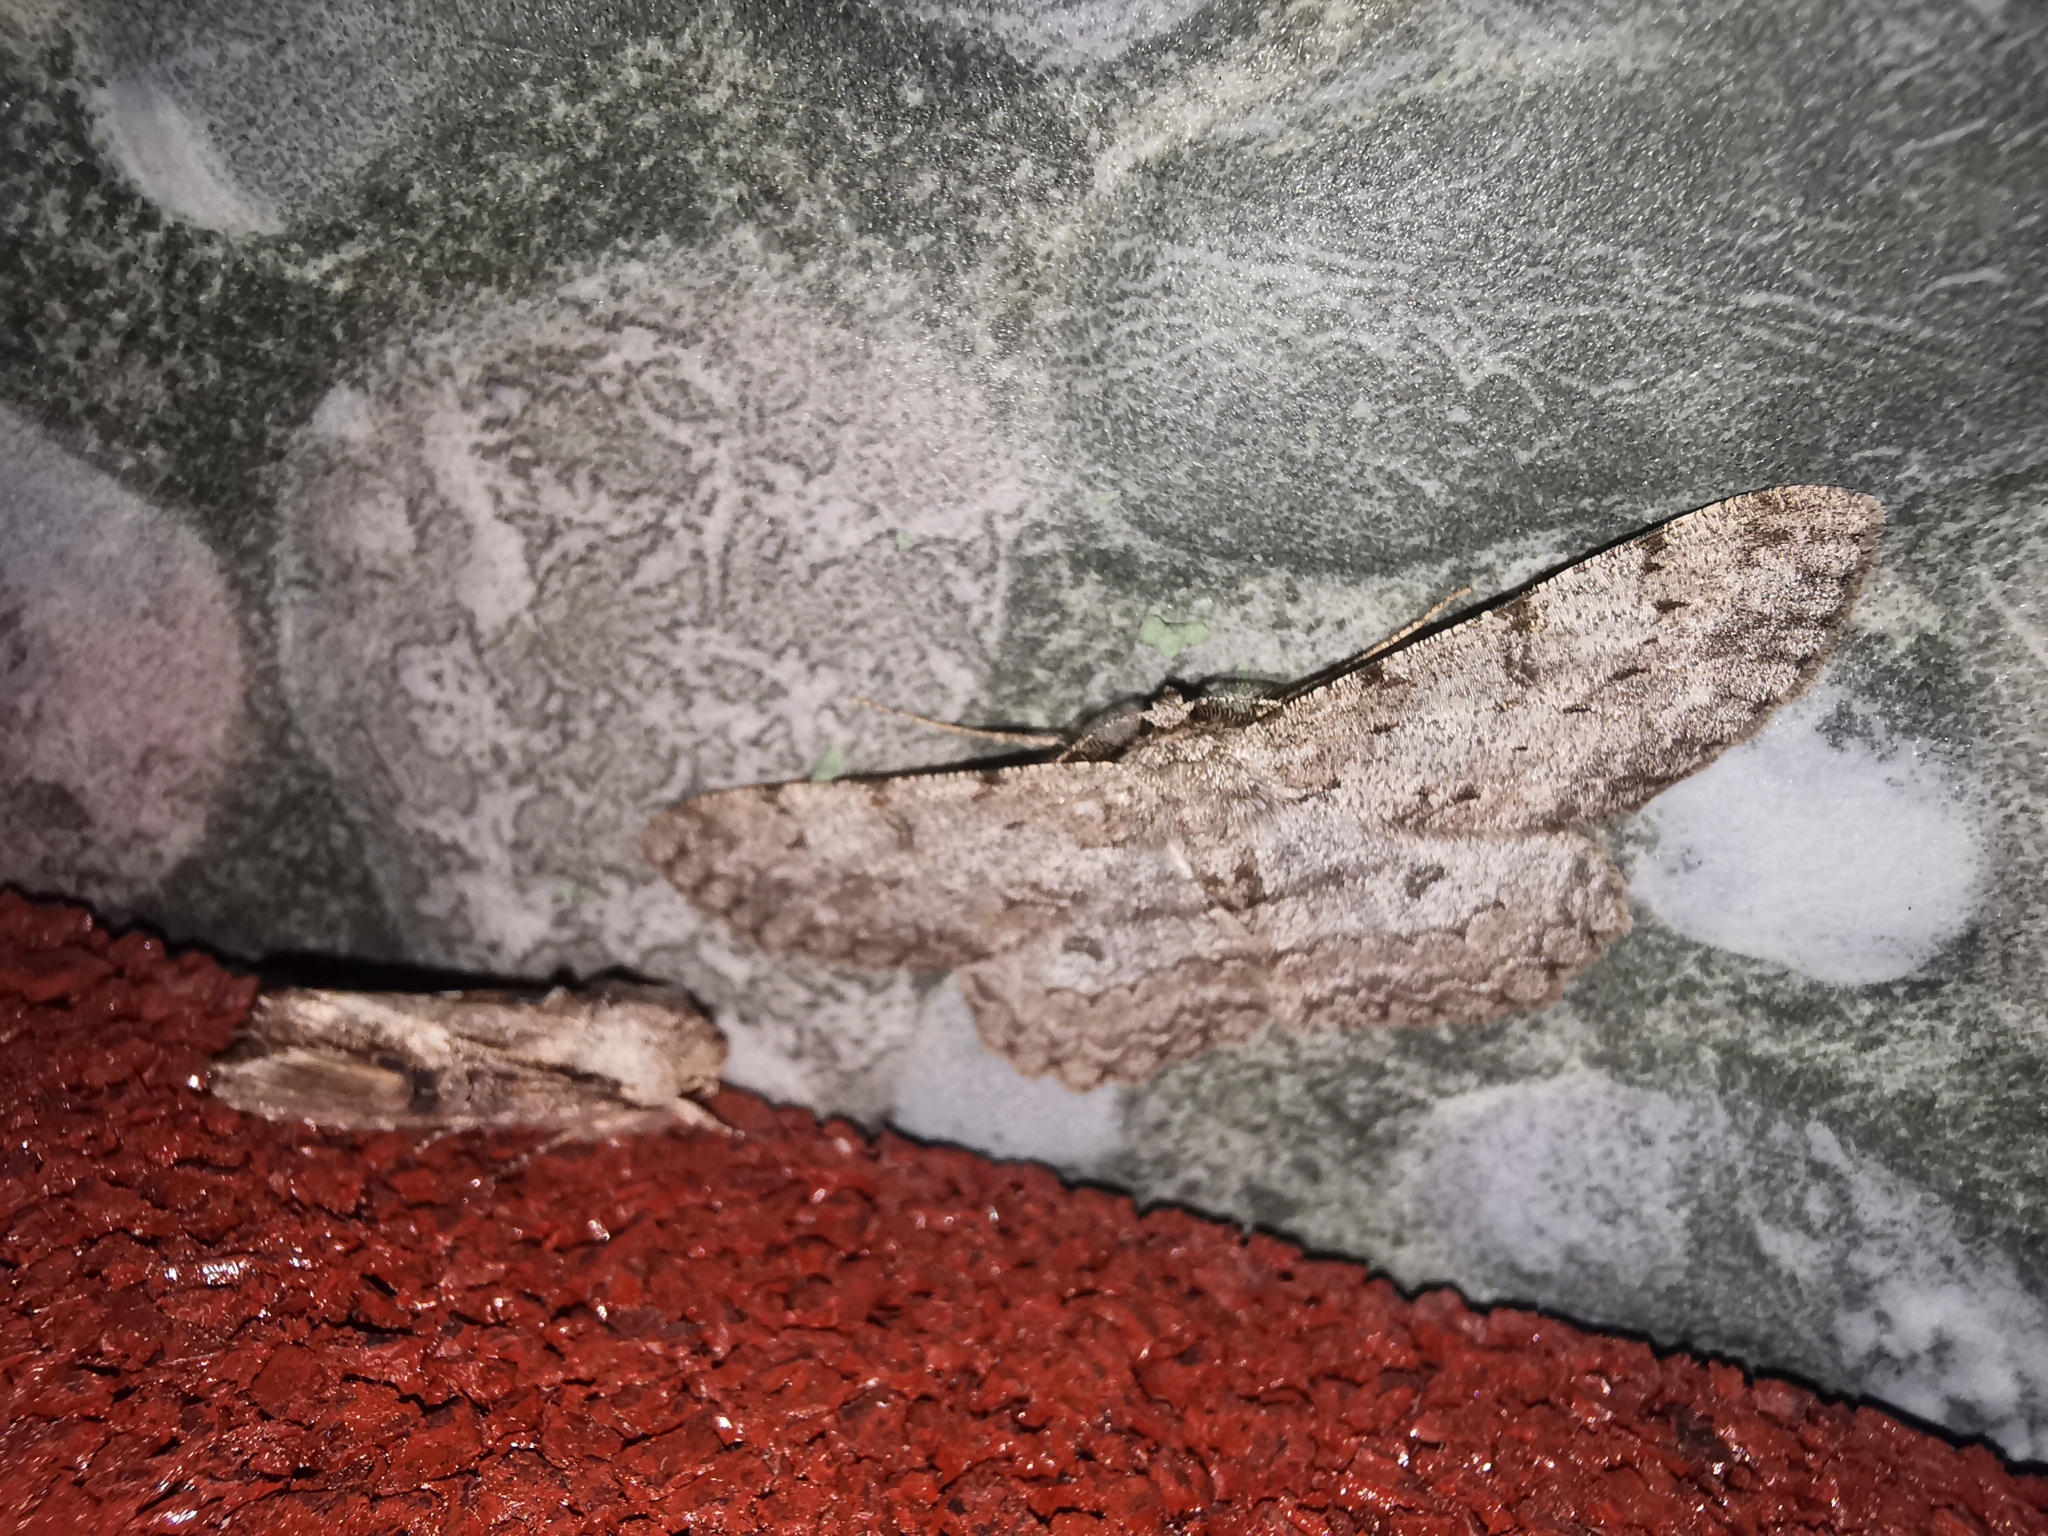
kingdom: Animalia
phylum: Arthropoda
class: Insecta
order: Lepidoptera
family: Geometridae
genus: Hypomecis
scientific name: Hypomecis punctinalis
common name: Pale oak beauty
